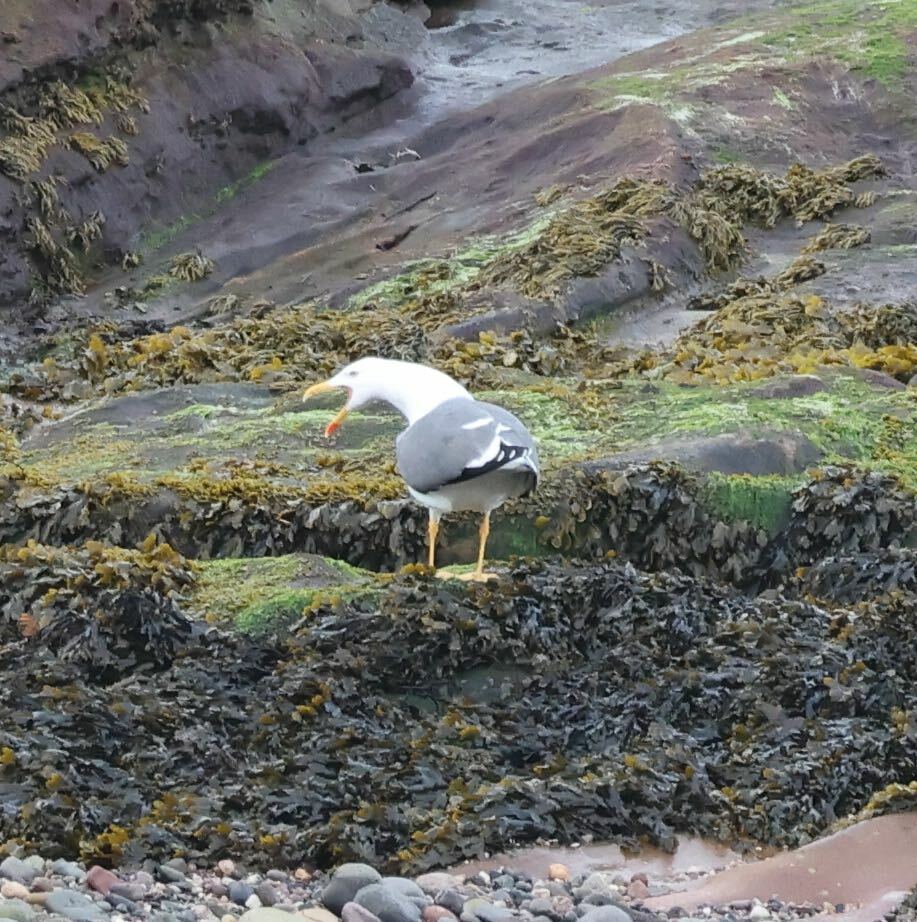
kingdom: Animalia
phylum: Chordata
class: Aves
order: Charadriiformes
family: Laridae
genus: Larus
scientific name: Larus michahellis
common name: Yellow-legged gull
